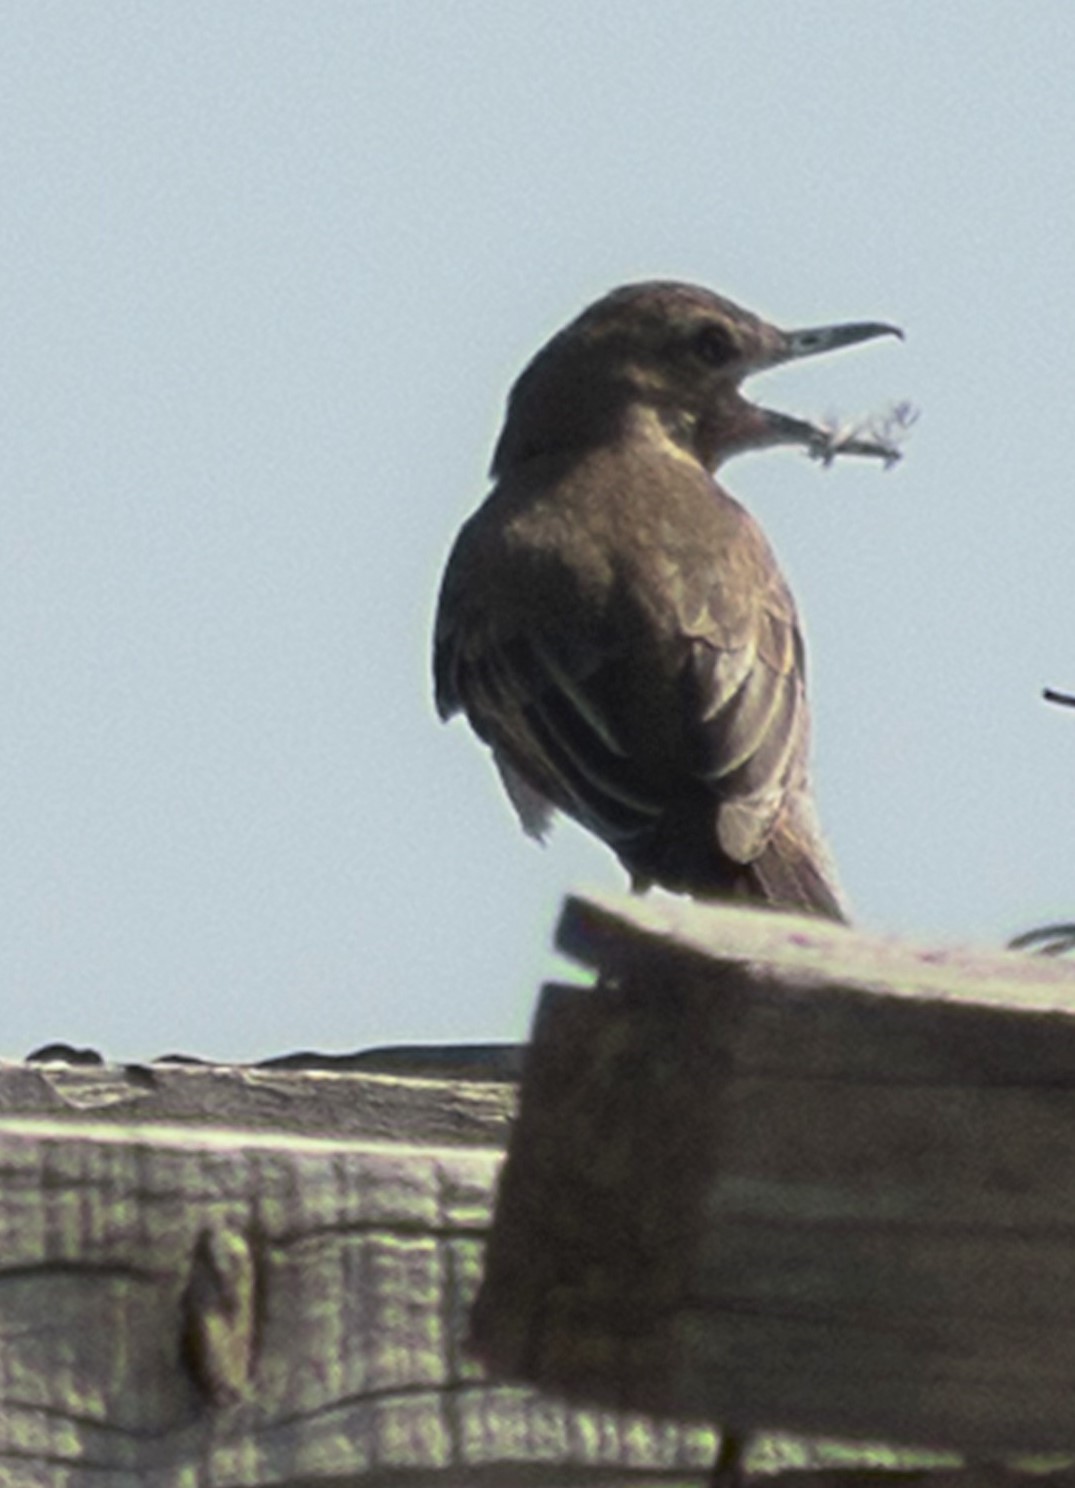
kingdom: Animalia
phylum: Chordata
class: Aves
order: Passeriformes
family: Tyrannidae
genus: Agriornis
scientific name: Agriornis micropterus
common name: Grey-bellied shrike-tyrant
